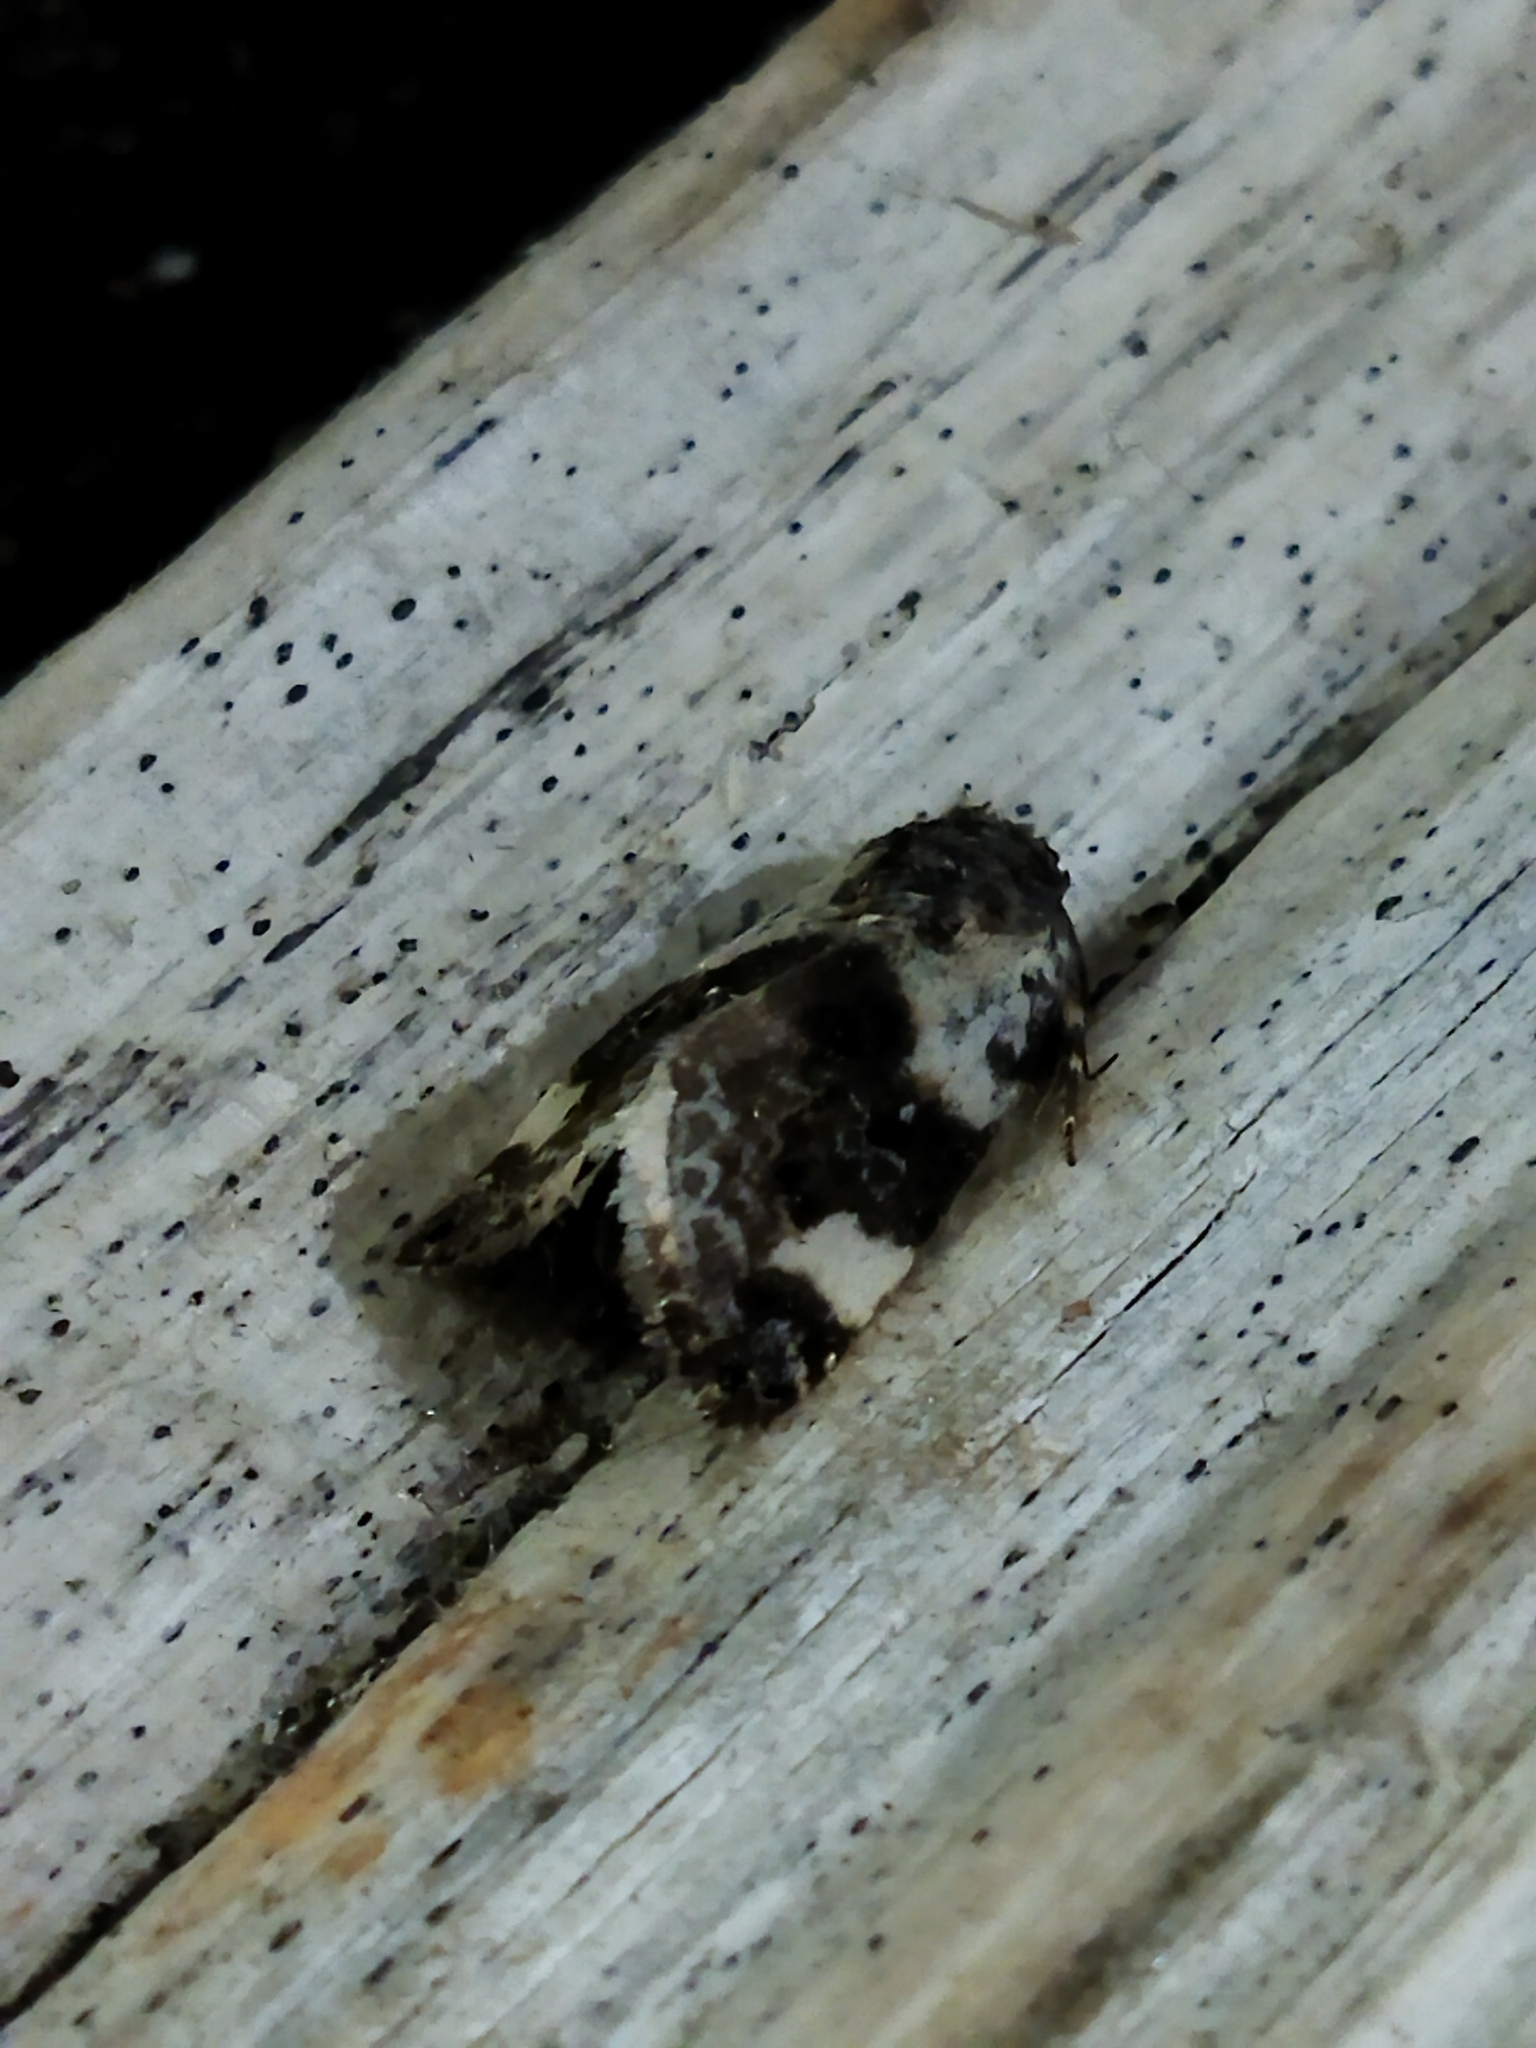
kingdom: Animalia
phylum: Arthropoda
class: Insecta
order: Lepidoptera
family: Noctuidae
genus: Acontia
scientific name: Acontia lucida
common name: Pale shoulder
